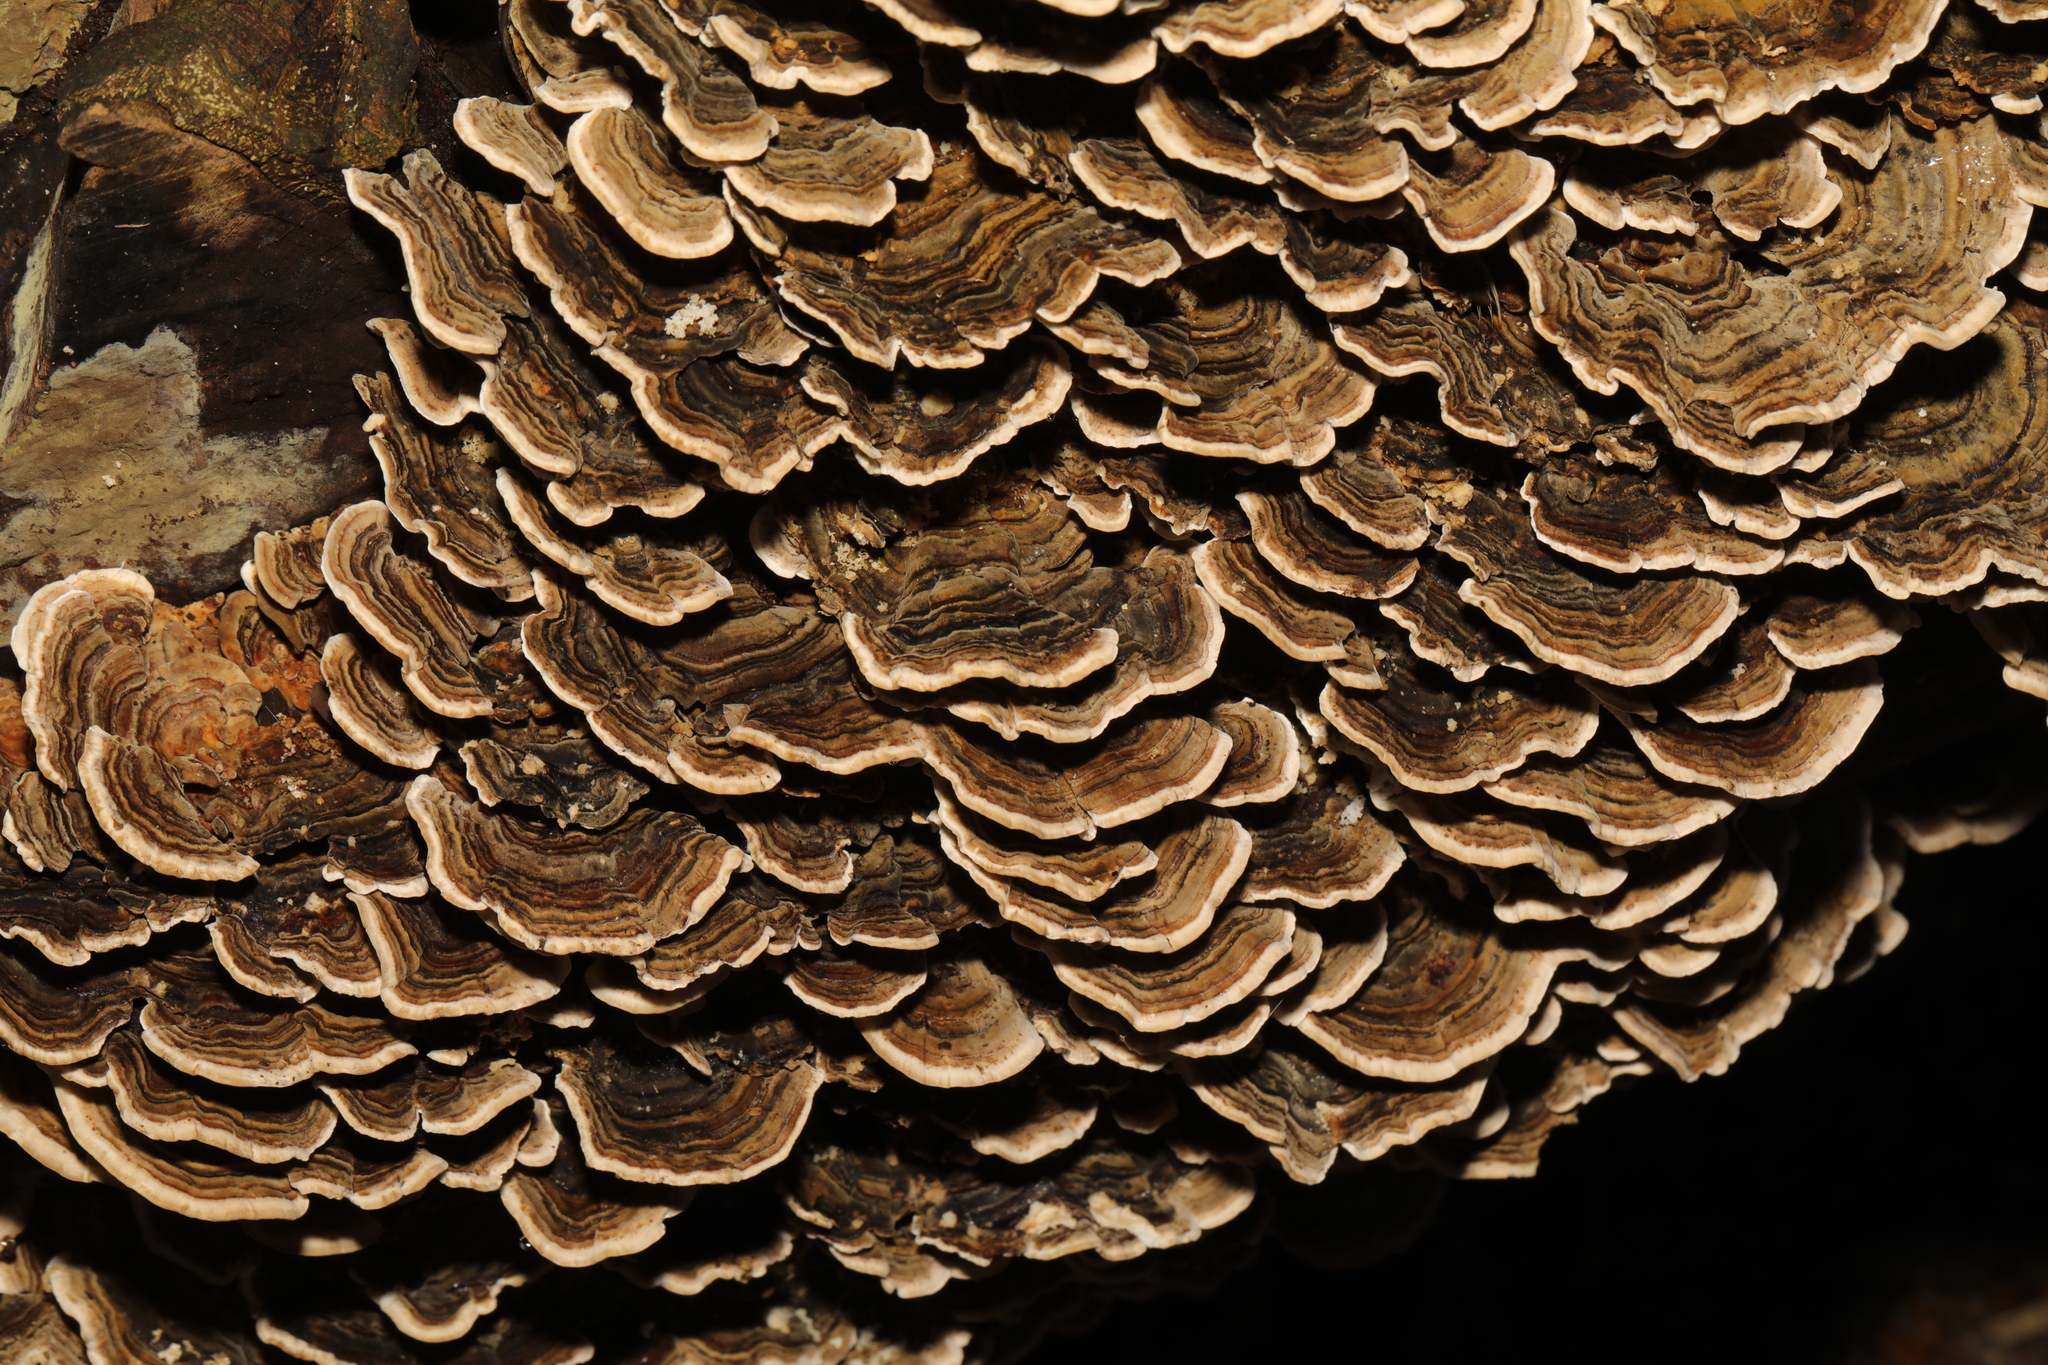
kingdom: Fungi
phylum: Basidiomycota
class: Agaricomycetes
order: Polyporales
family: Polyporaceae
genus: Trametes
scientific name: Trametes versicolor
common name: Turkeytail
